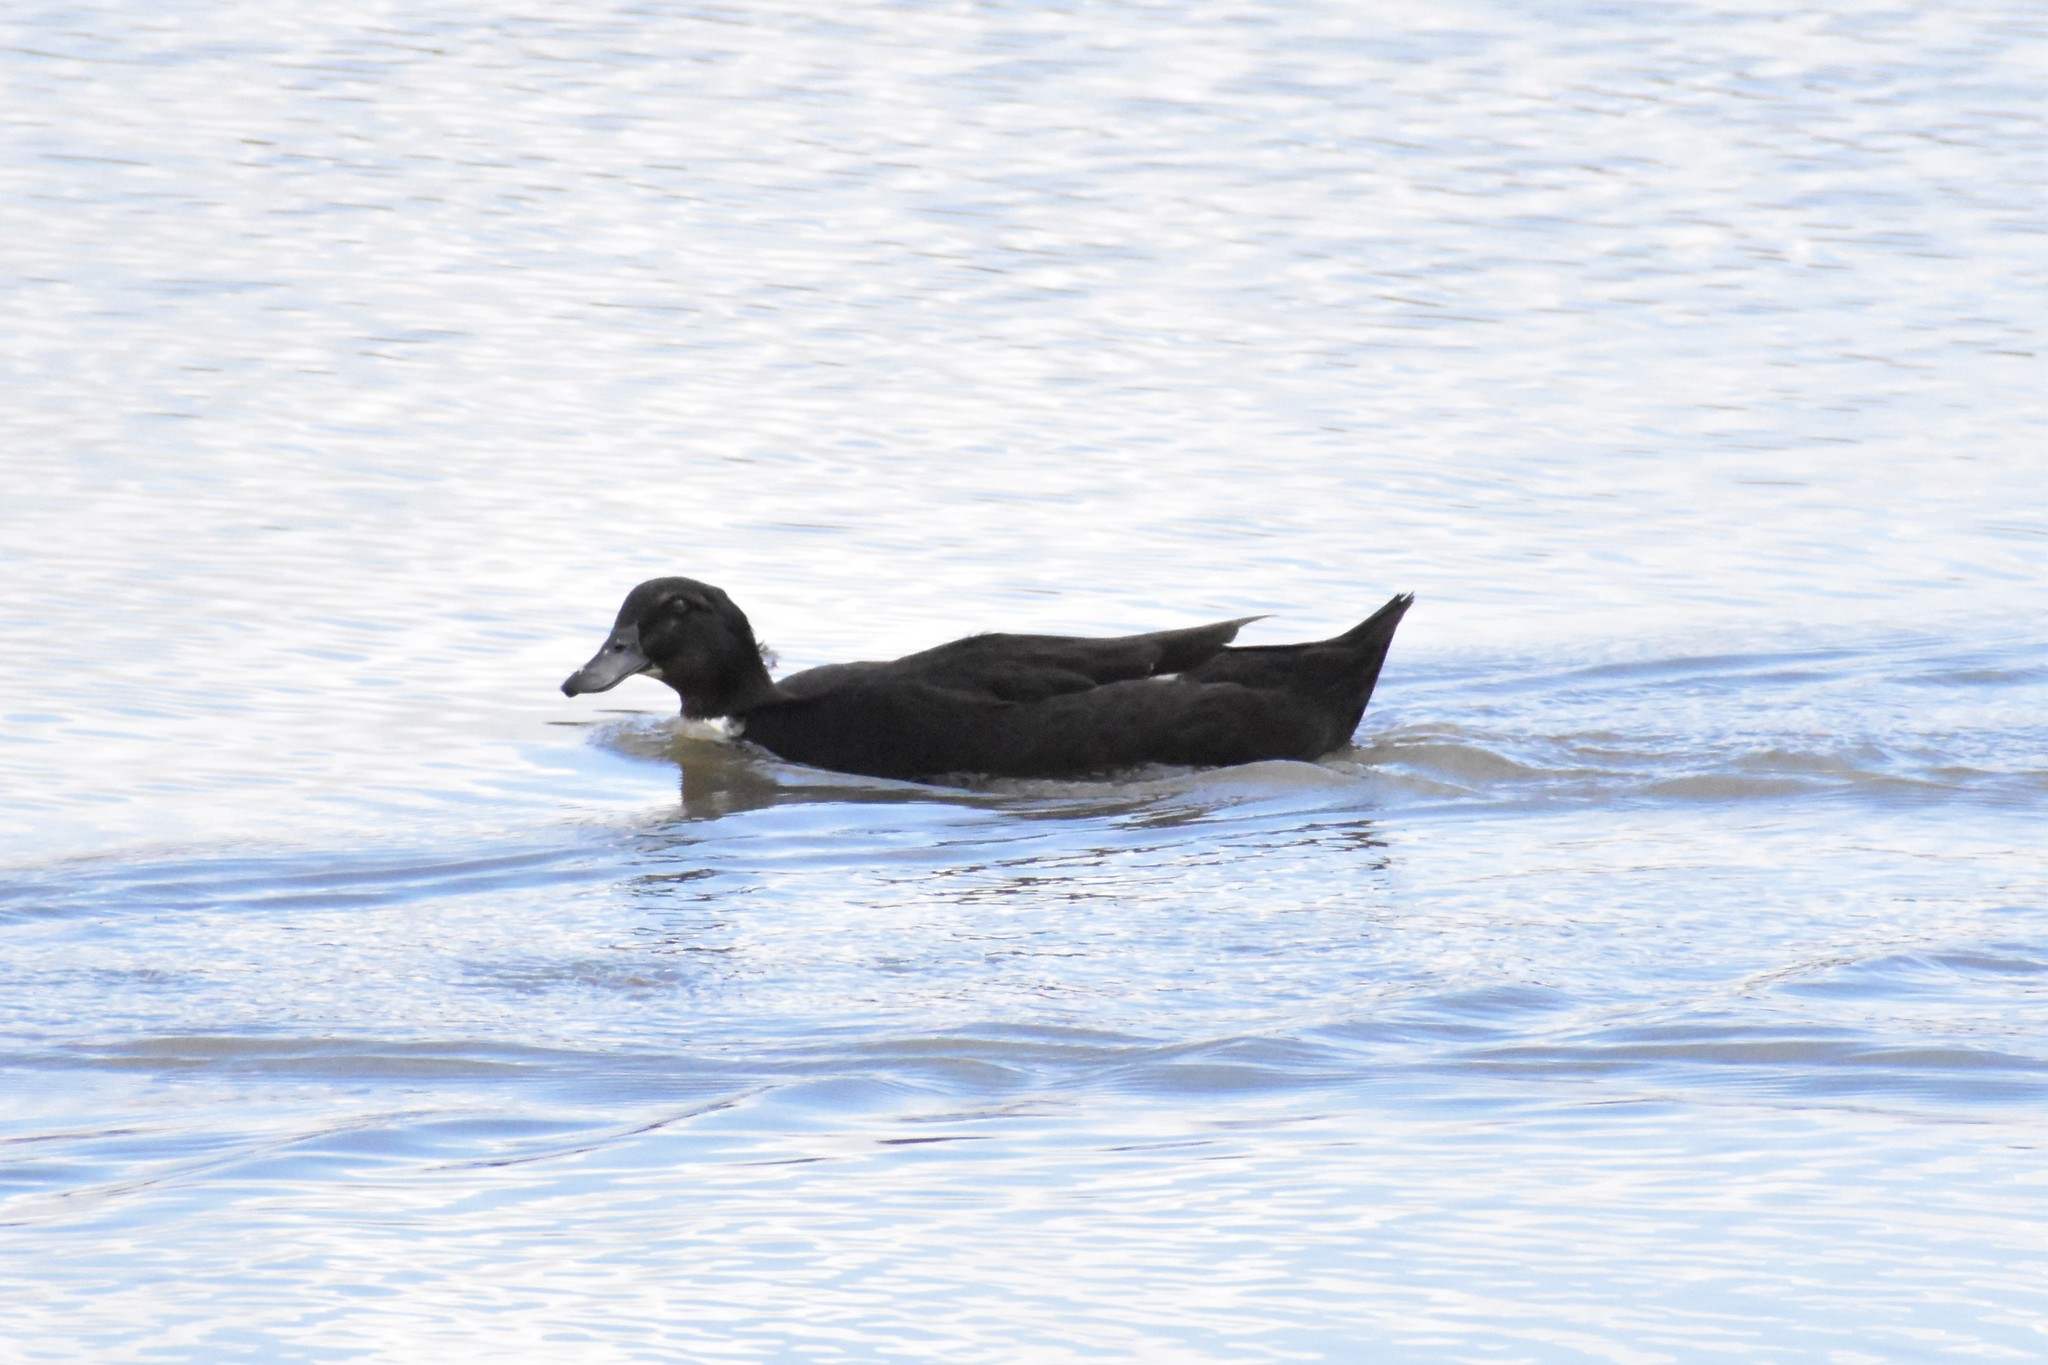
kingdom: Animalia
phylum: Chordata
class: Aves
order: Anseriformes
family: Anatidae
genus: Anas
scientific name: Anas platyrhynchos
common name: Mallard
